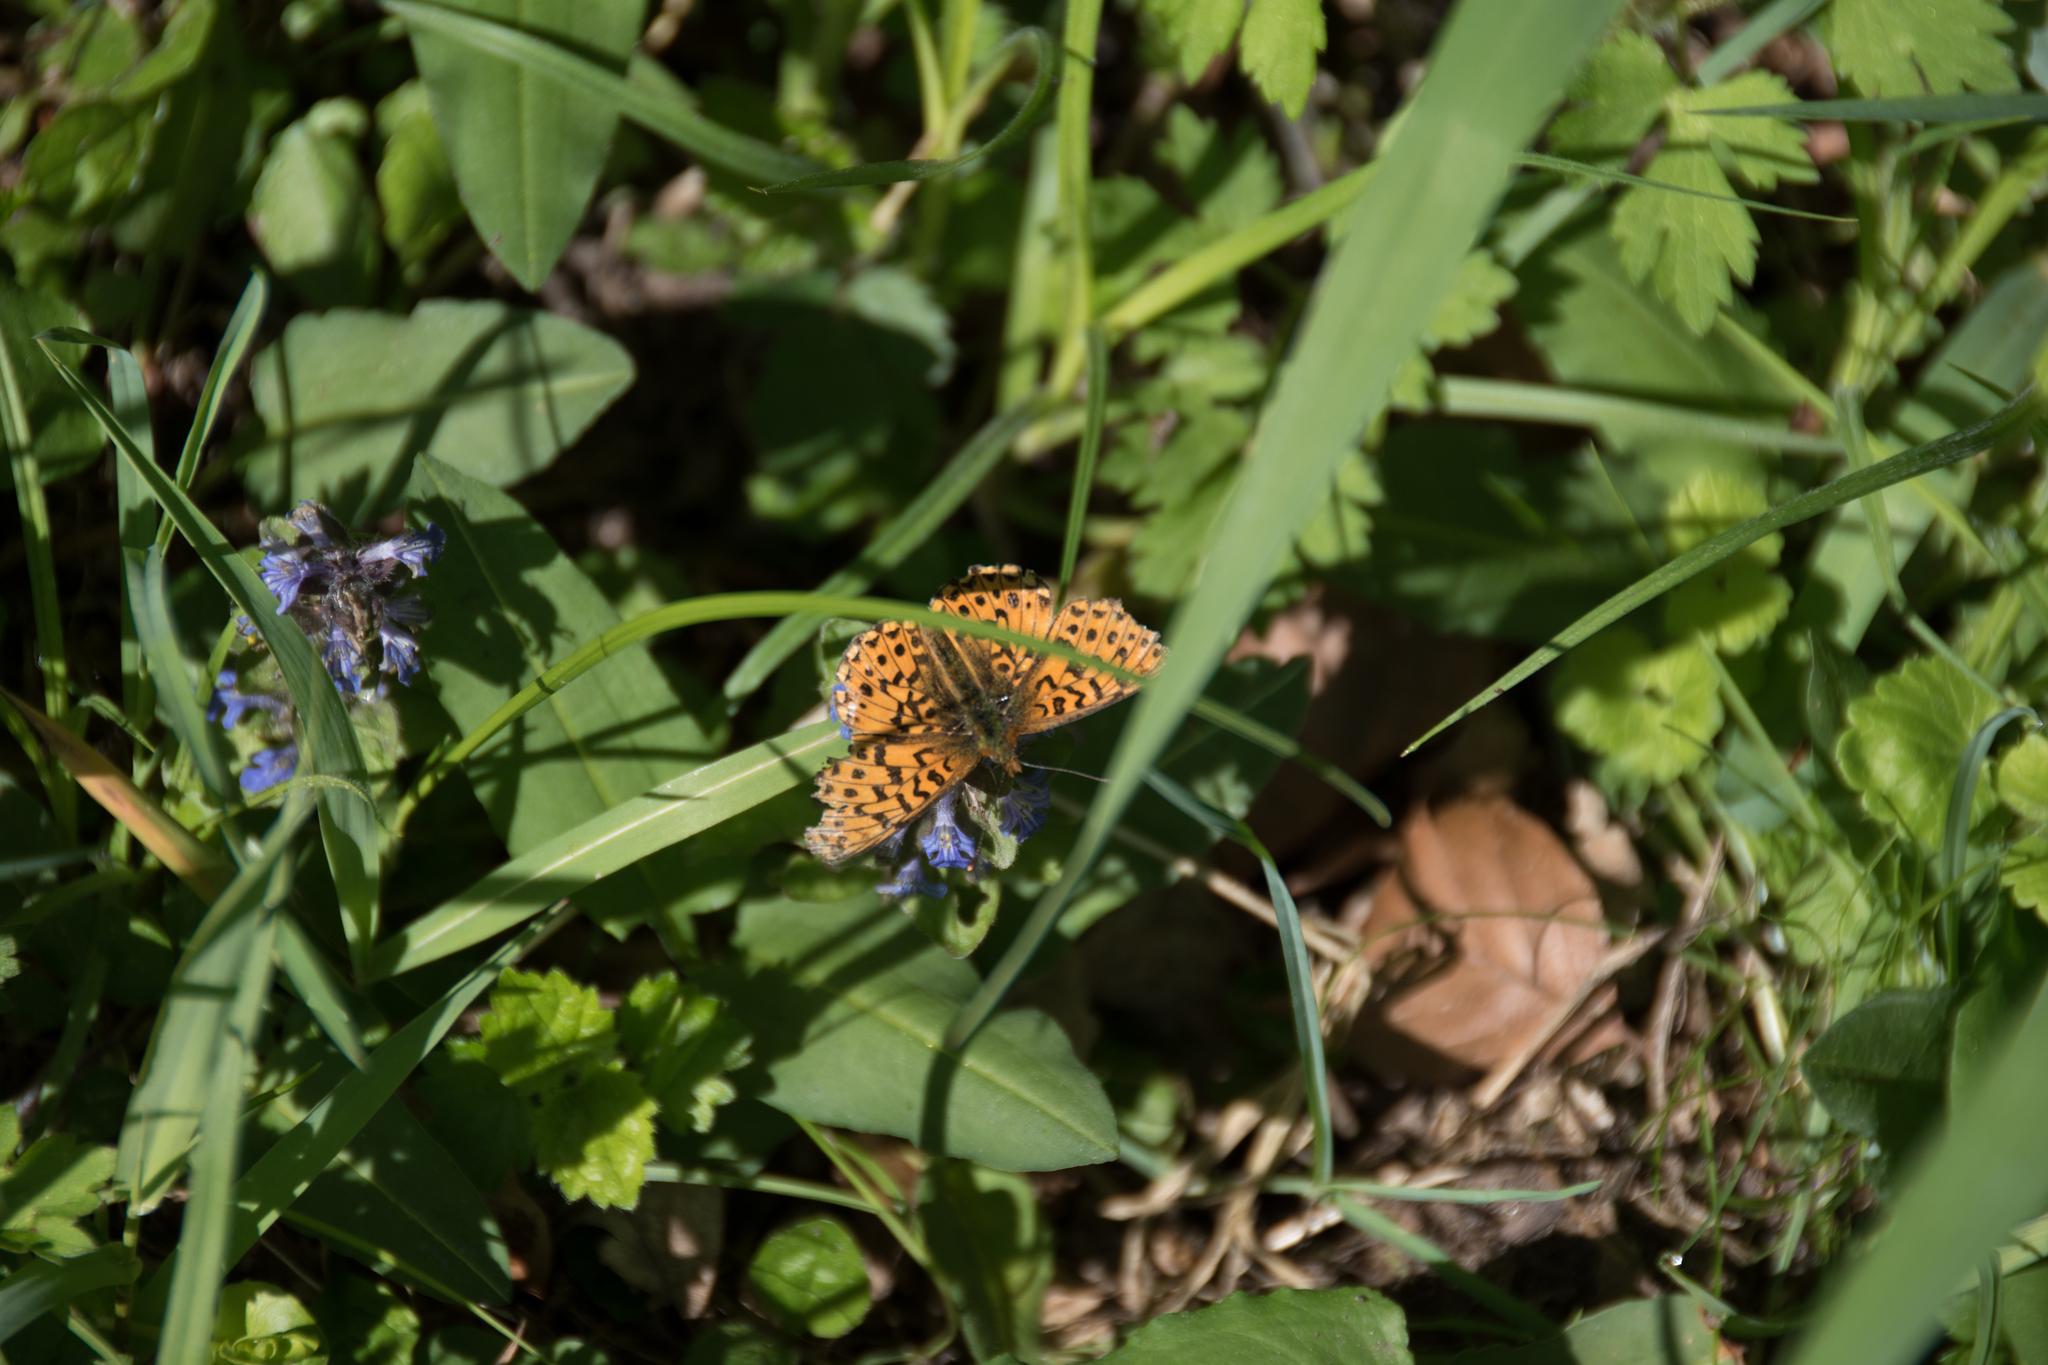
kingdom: Animalia
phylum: Arthropoda
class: Insecta
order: Lepidoptera
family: Nymphalidae
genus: Clossiana
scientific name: Clossiana euphrosyne
